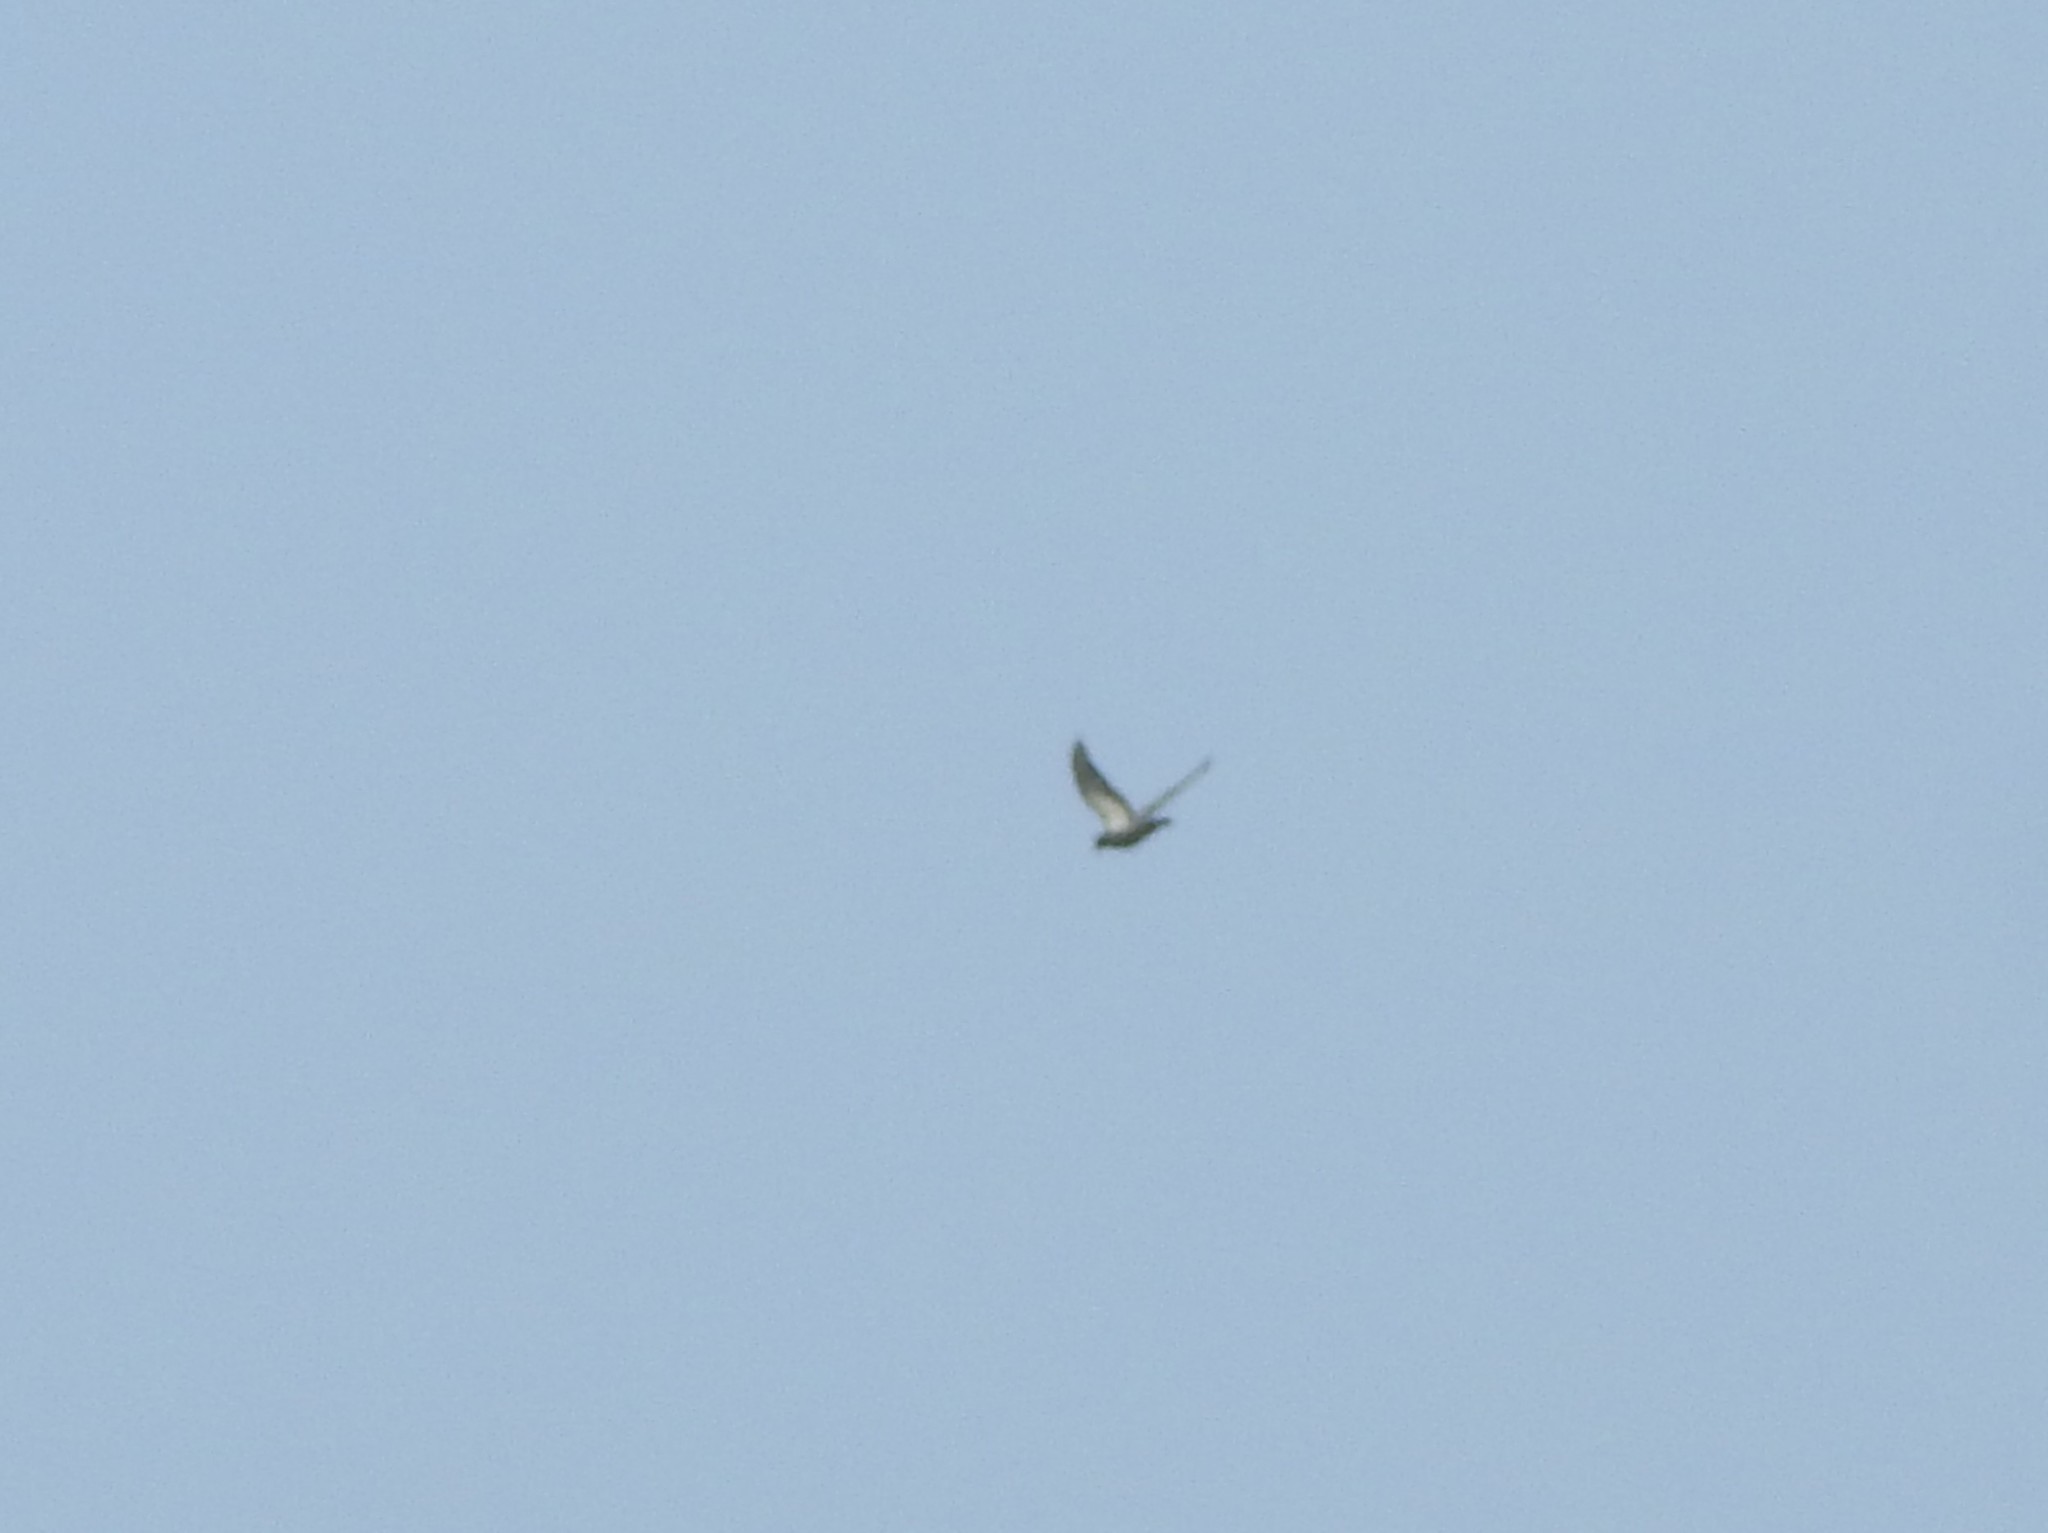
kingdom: Animalia
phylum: Chordata
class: Aves
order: Columbiformes
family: Columbidae
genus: Columba
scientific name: Columba livia
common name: Rock pigeon
